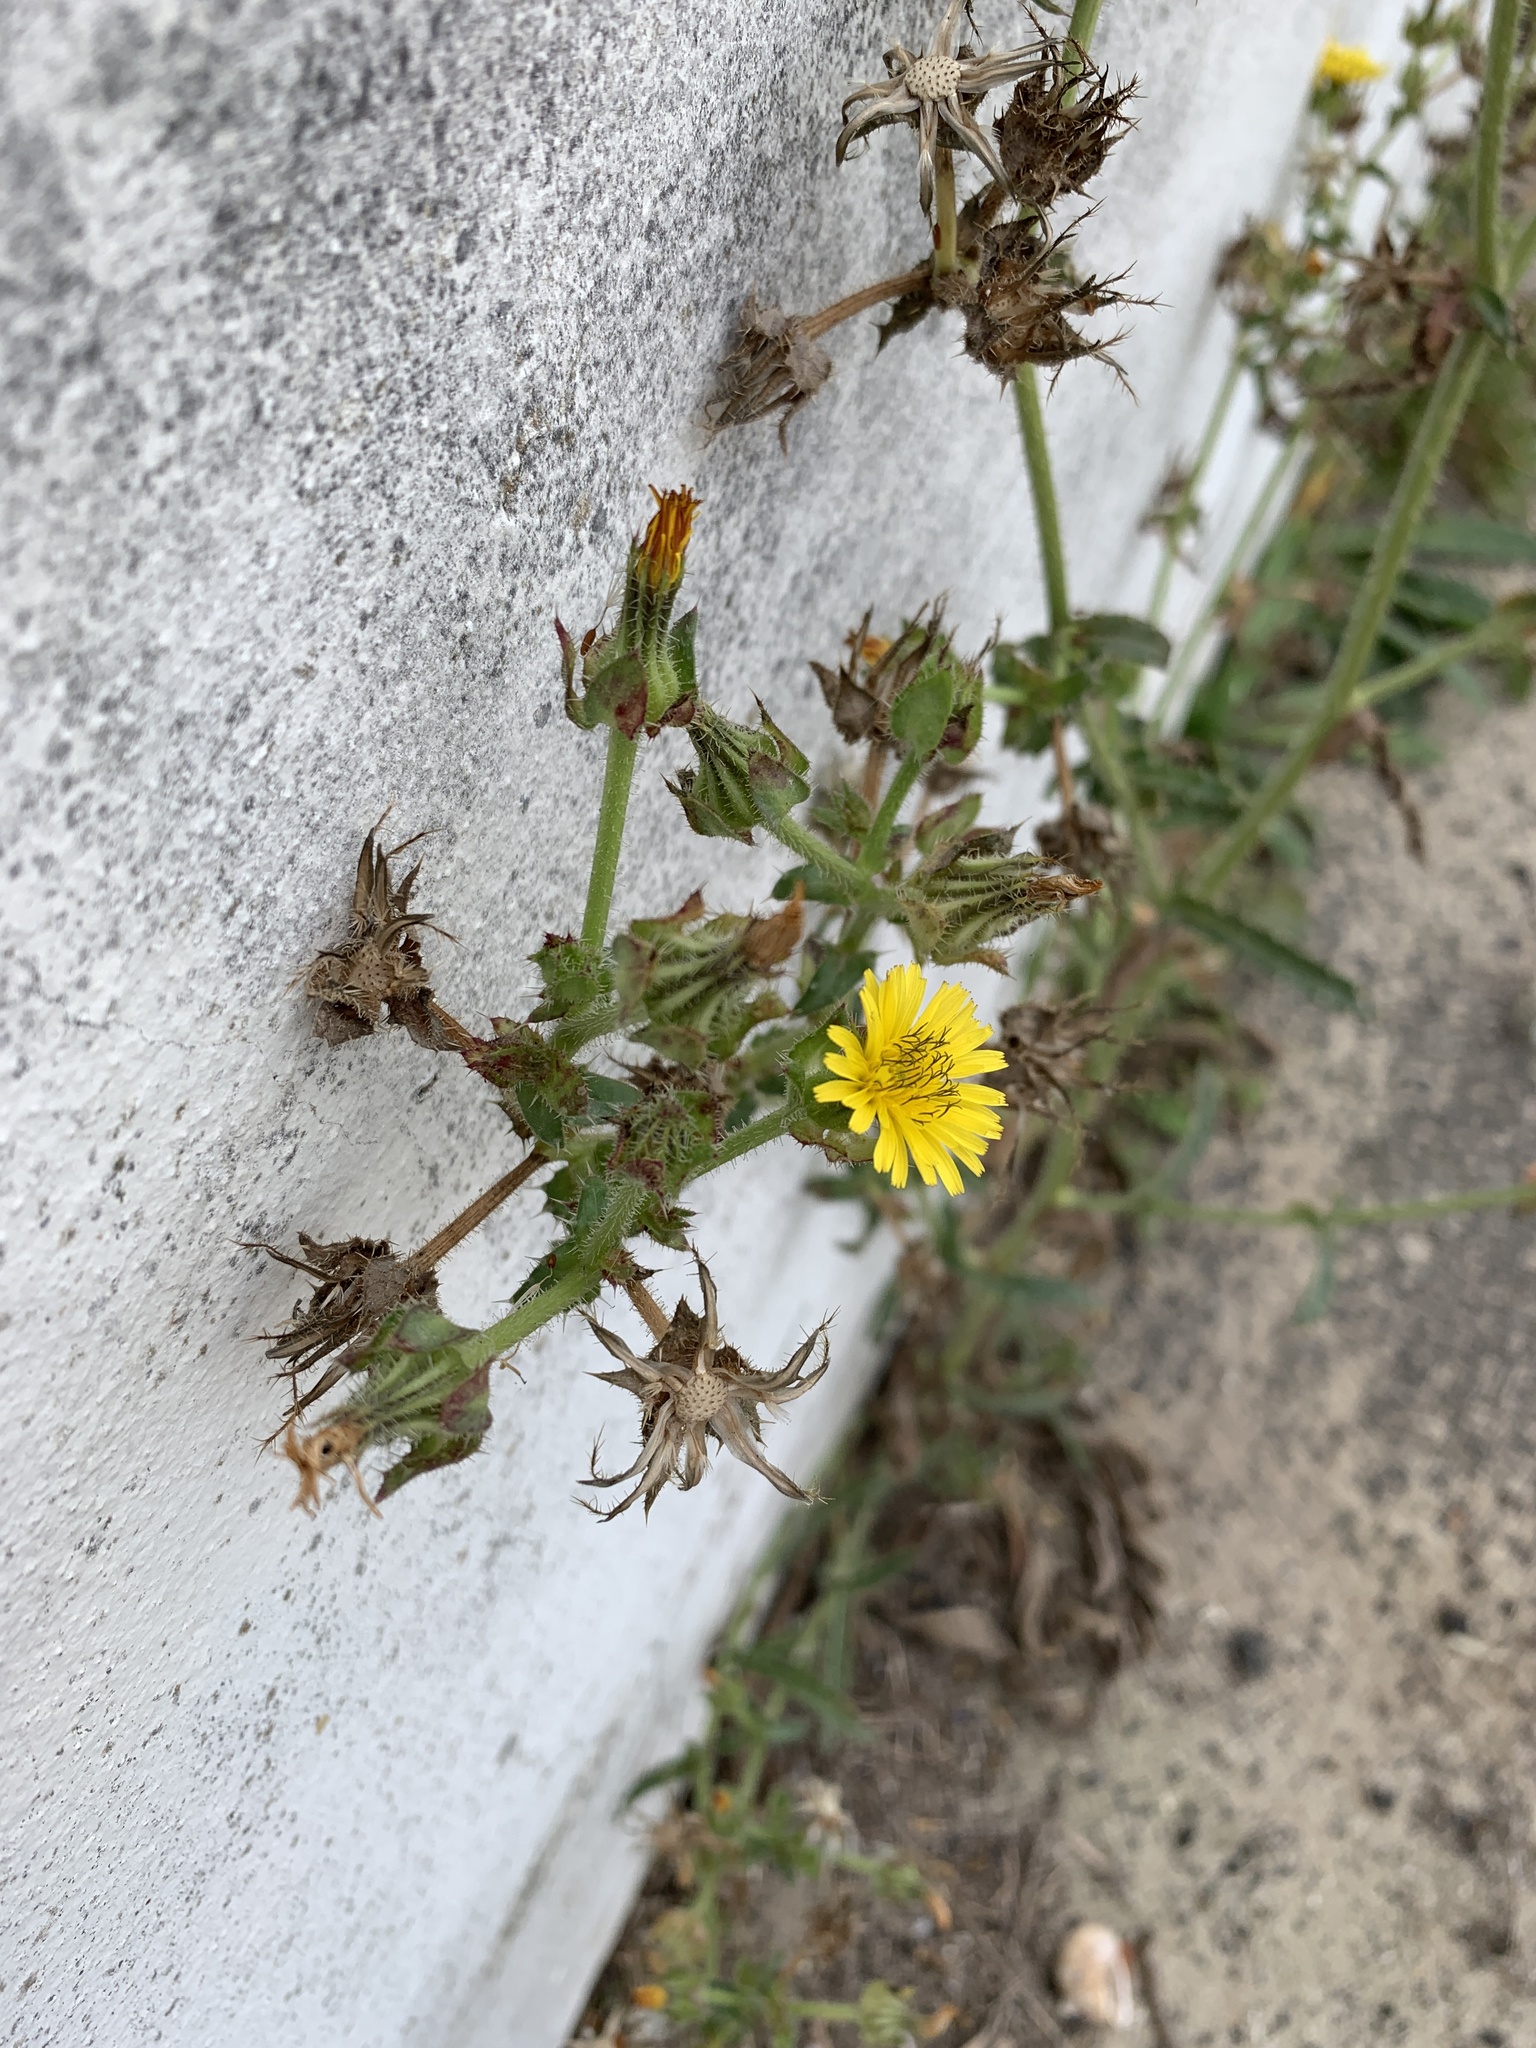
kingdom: Plantae
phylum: Tracheophyta
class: Magnoliopsida
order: Asterales
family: Asteraceae
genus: Helminthotheca
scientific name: Helminthotheca echioides
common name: Ox-tongue
